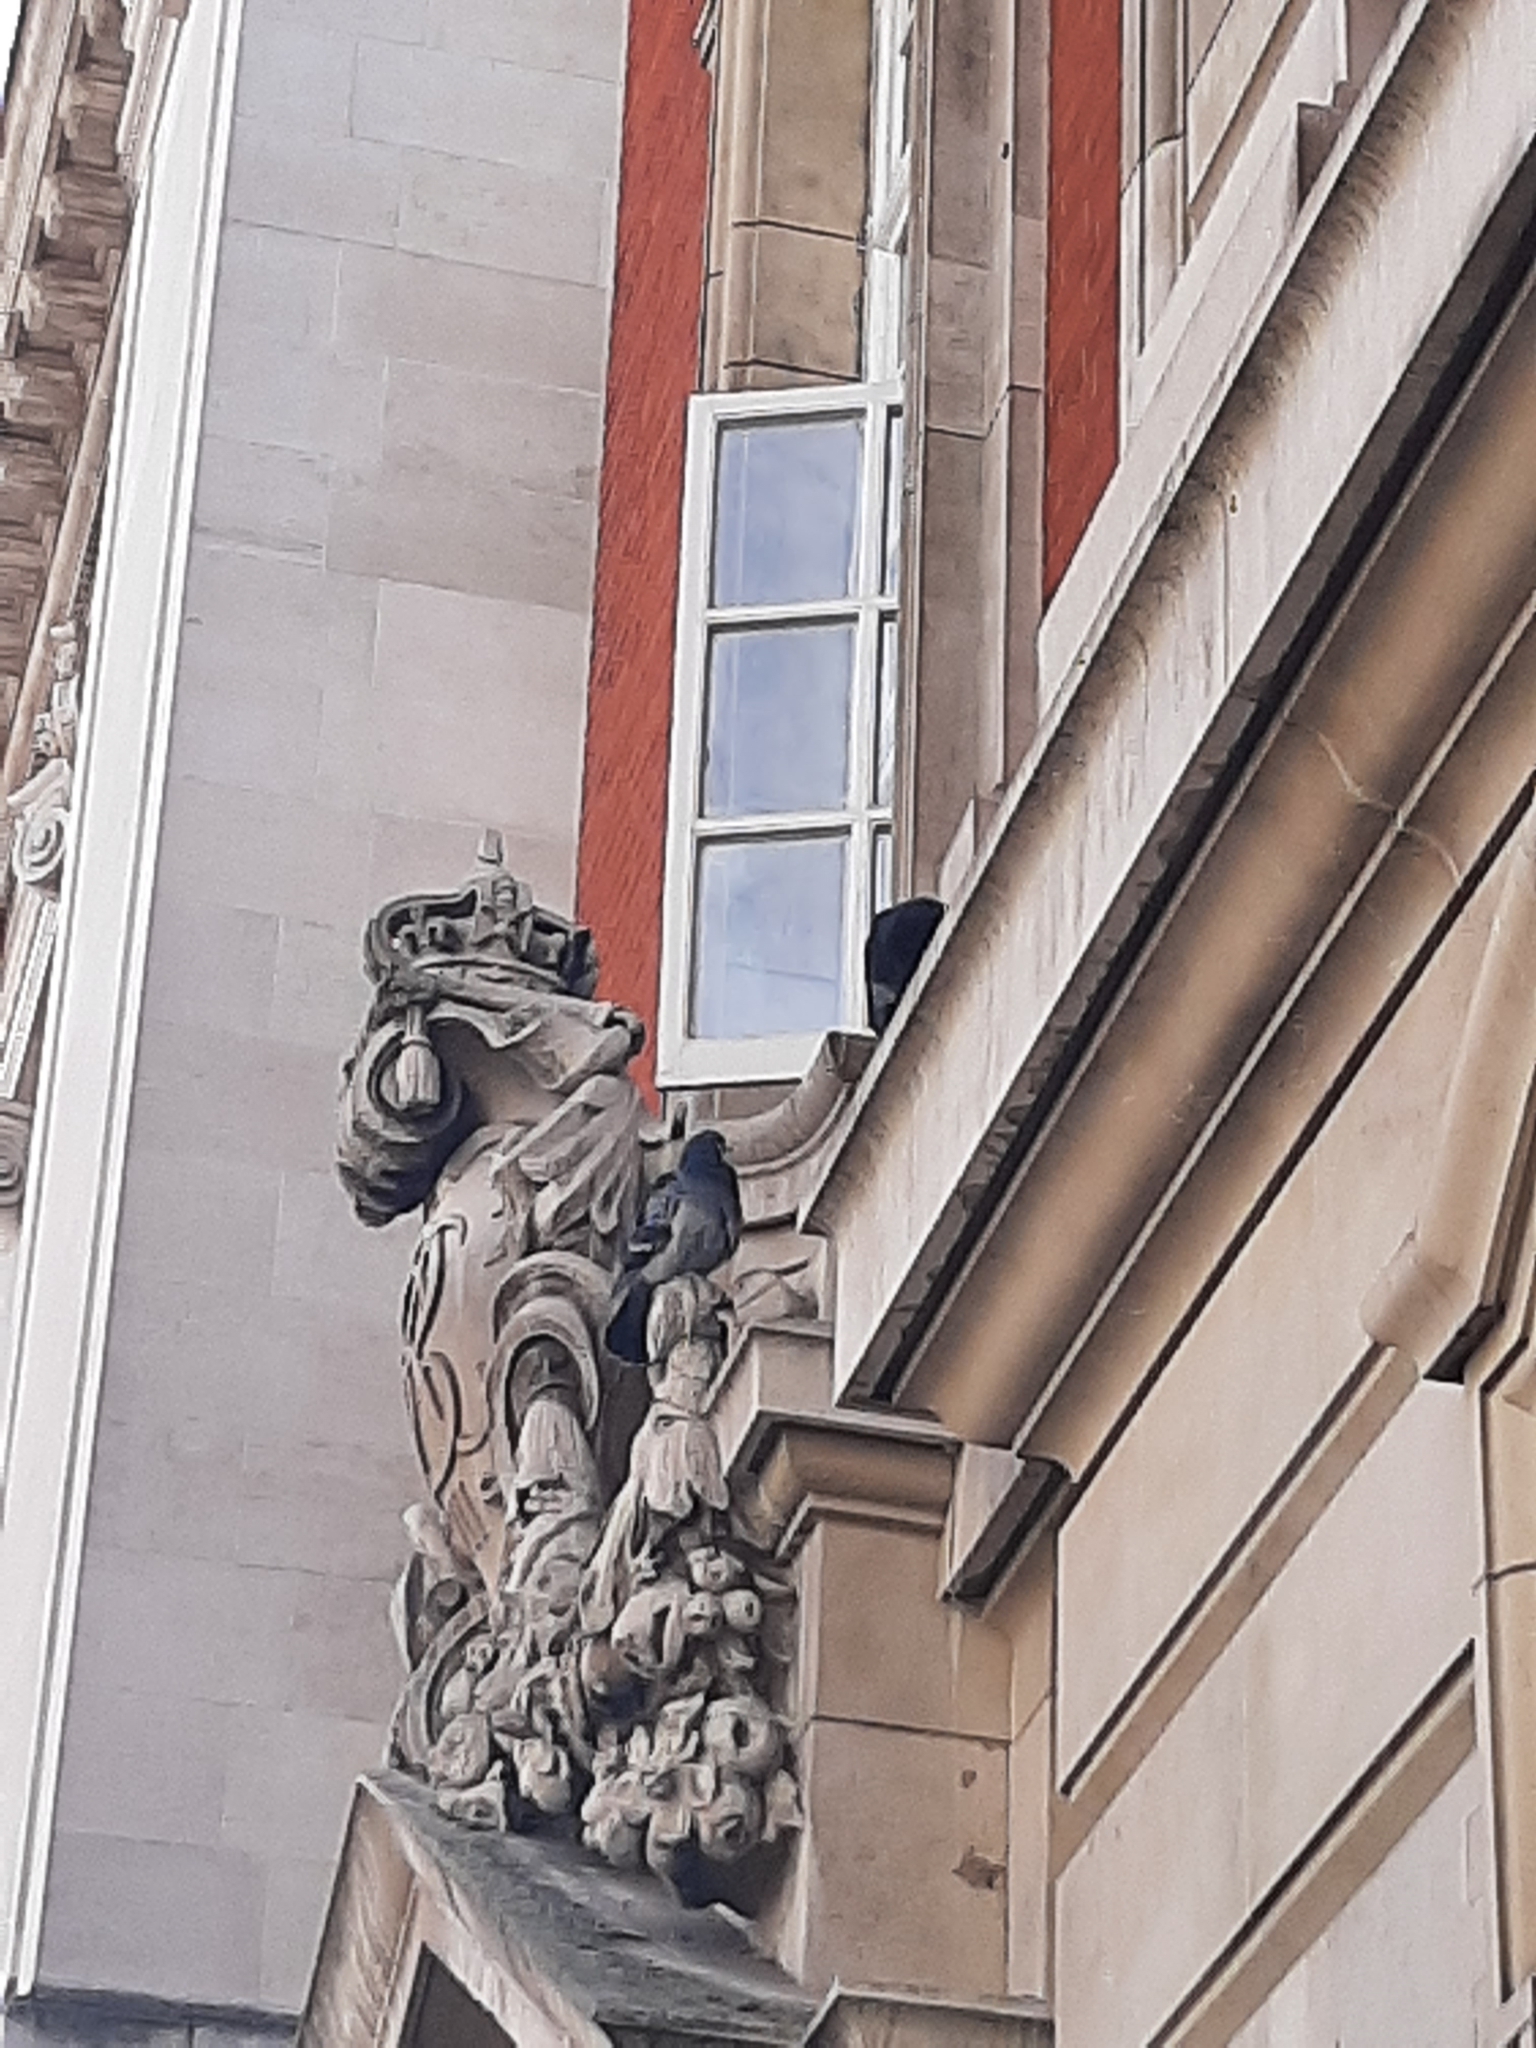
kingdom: Animalia
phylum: Chordata
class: Aves
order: Columbiformes
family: Columbidae
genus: Columba
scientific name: Columba livia
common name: Rock pigeon
